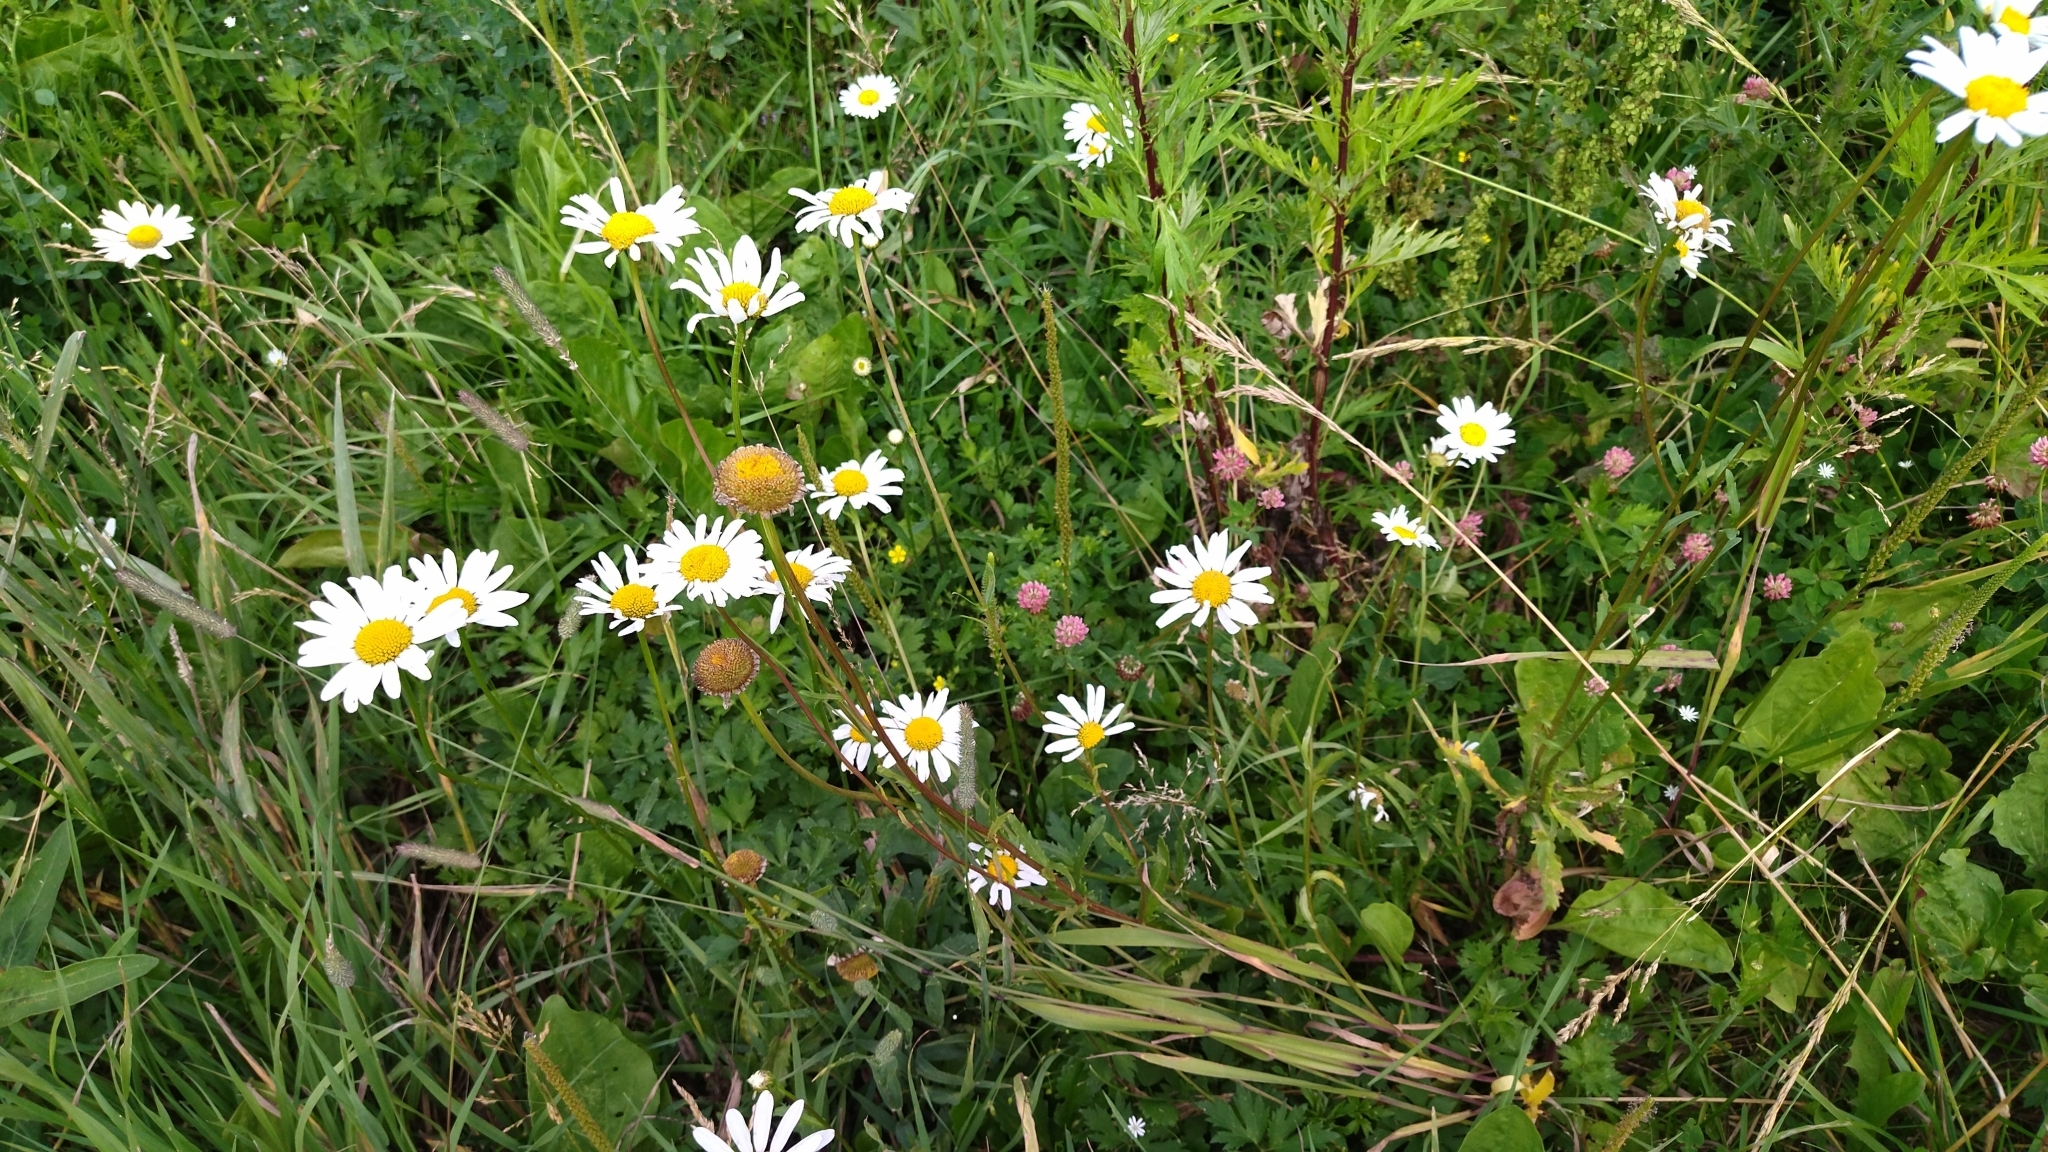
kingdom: Plantae
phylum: Tracheophyta
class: Magnoliopsida
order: Asterales
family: Asteraceae
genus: Leucanthemum
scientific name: Leucanthemum vulgare
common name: Oxeye daisy
